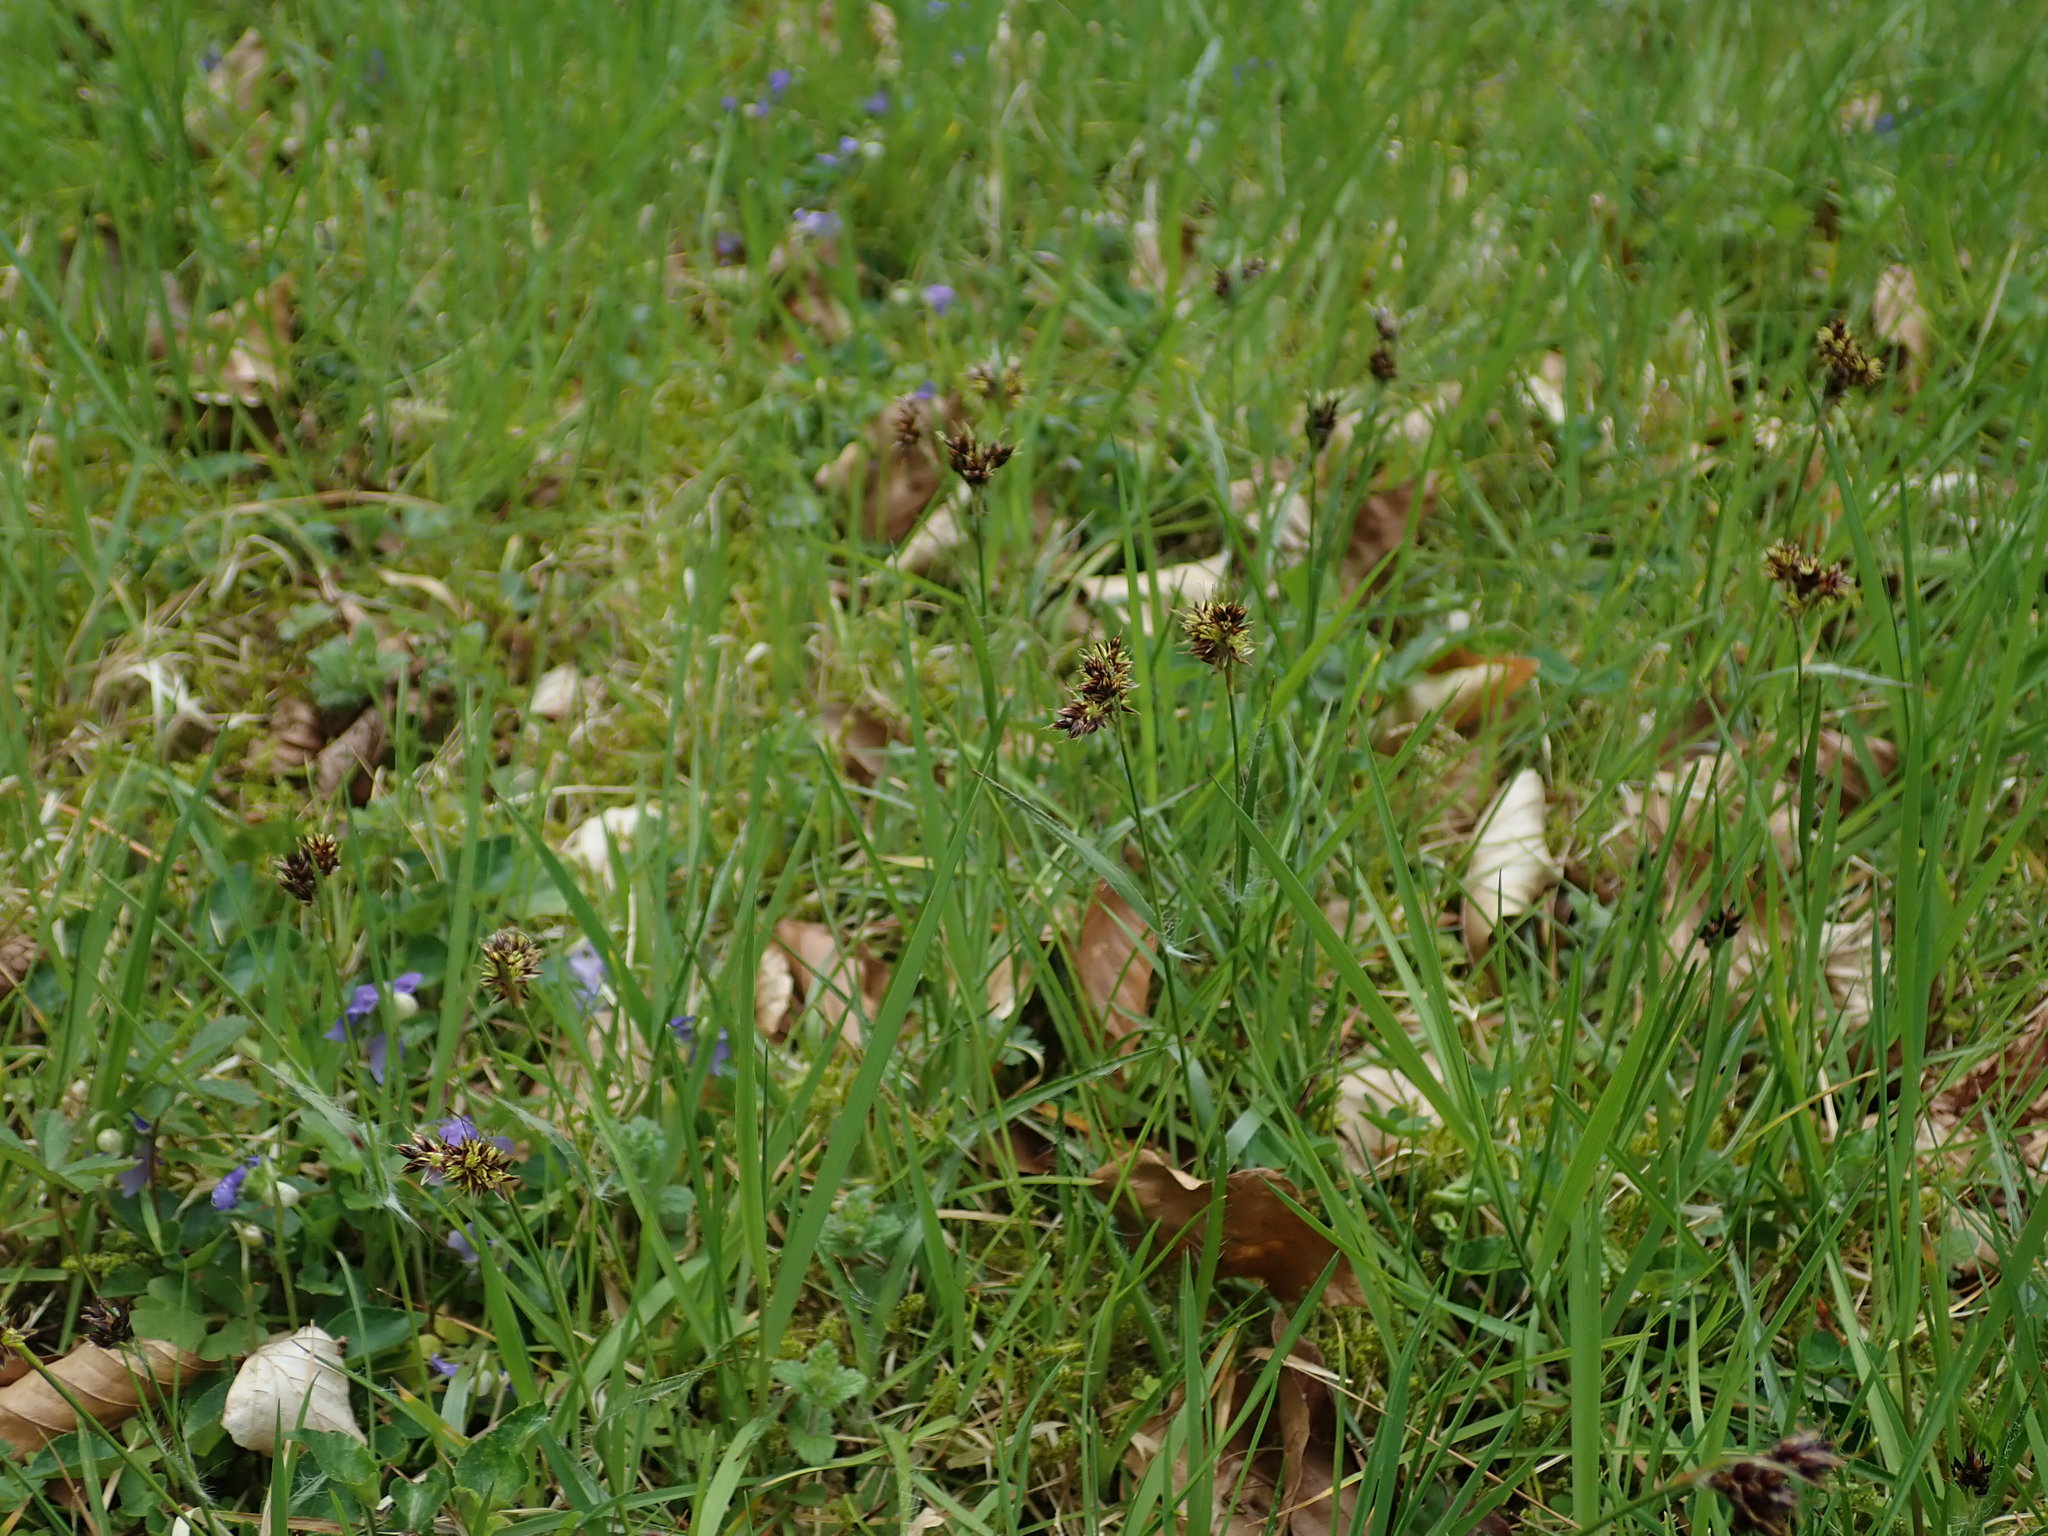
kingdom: Plantae
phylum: Tracheophyta
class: Liliopsida
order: Poales
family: Juncaceae
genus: Luzula
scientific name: Luzula campestris
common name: Field wood-rush
